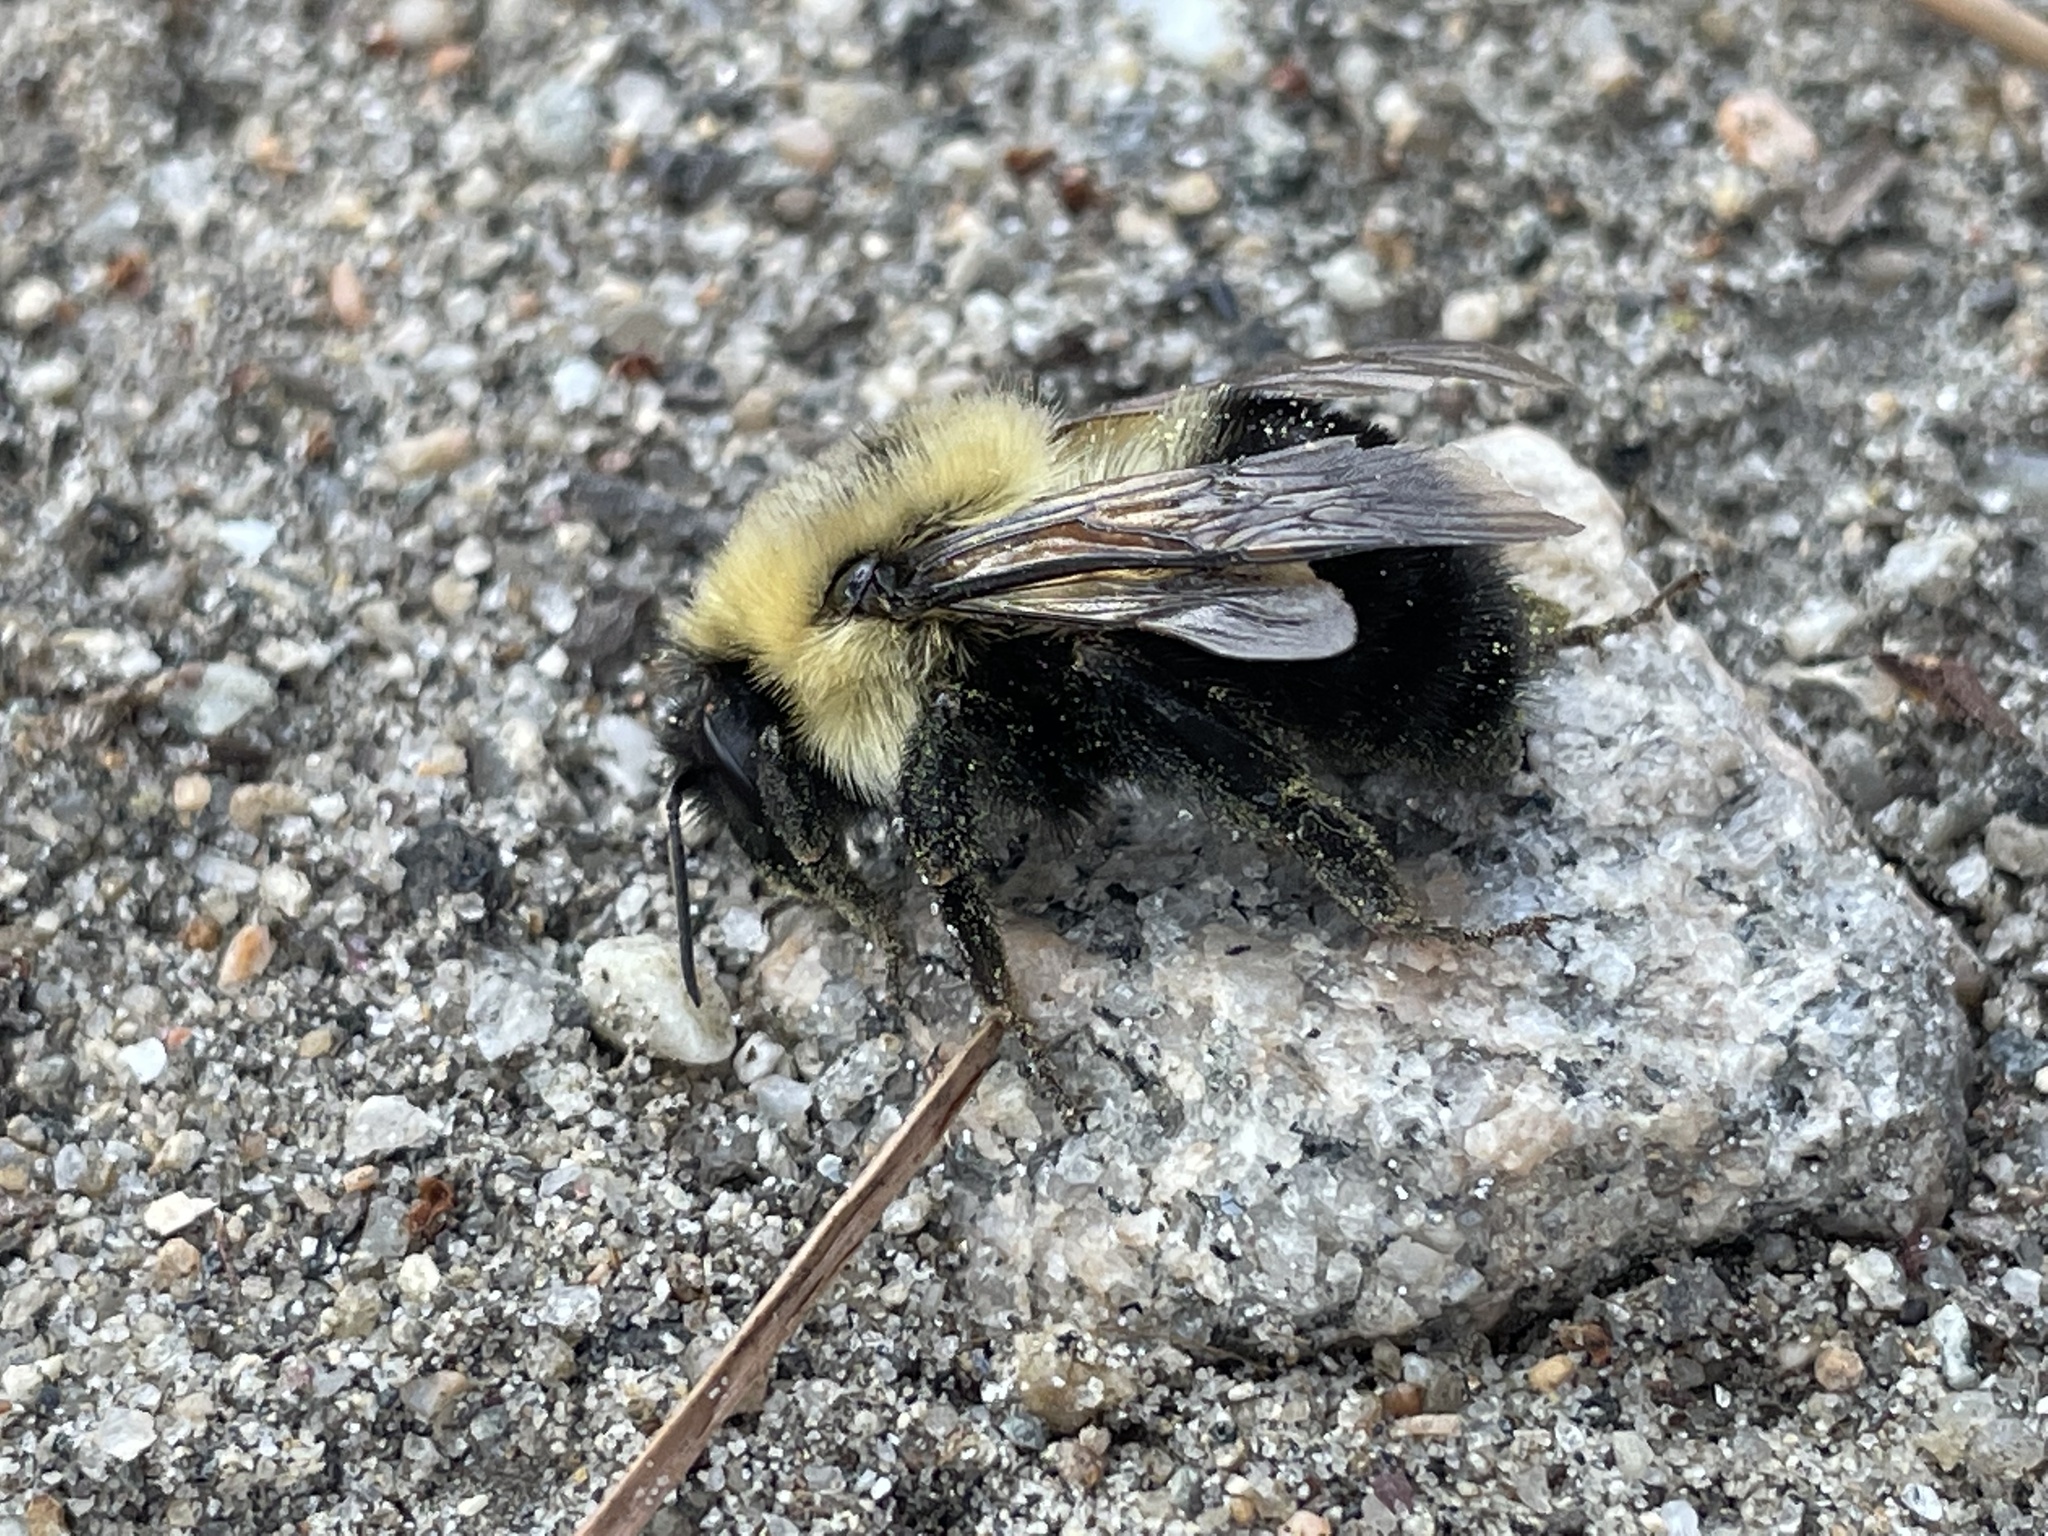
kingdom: Animalia
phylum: Arthropoda
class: Insecta
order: Hymenoptera
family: Apidae
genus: Bombus
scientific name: Bombus bimaculatus
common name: Two-spotted bumble bee
